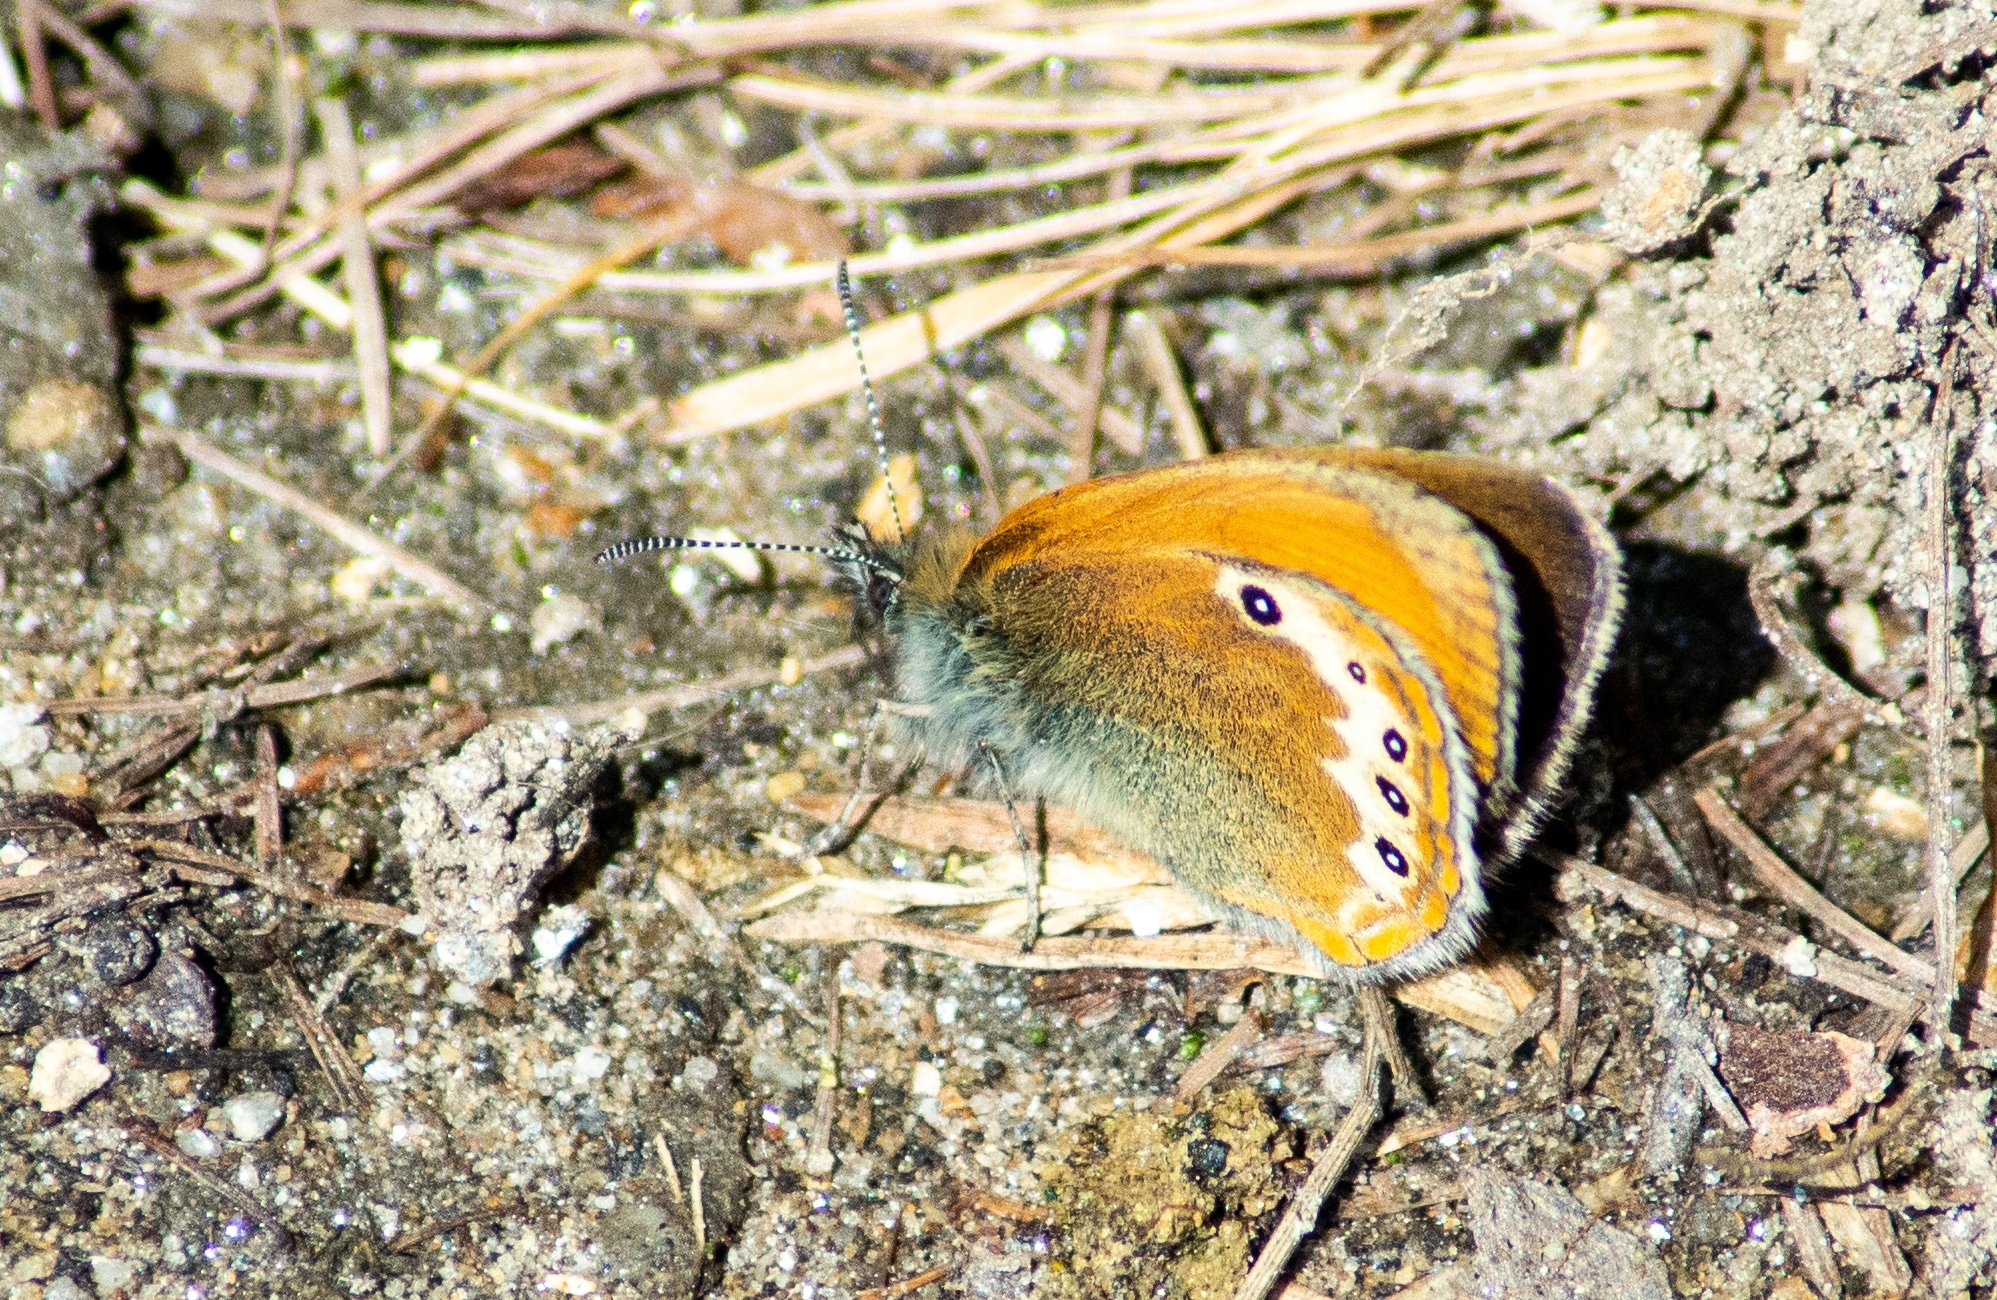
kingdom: Animalia
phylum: Arthropoda
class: Insecta
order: Lepidoptera
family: Nymphalidae
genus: Coenonympha
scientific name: Coenonympha
